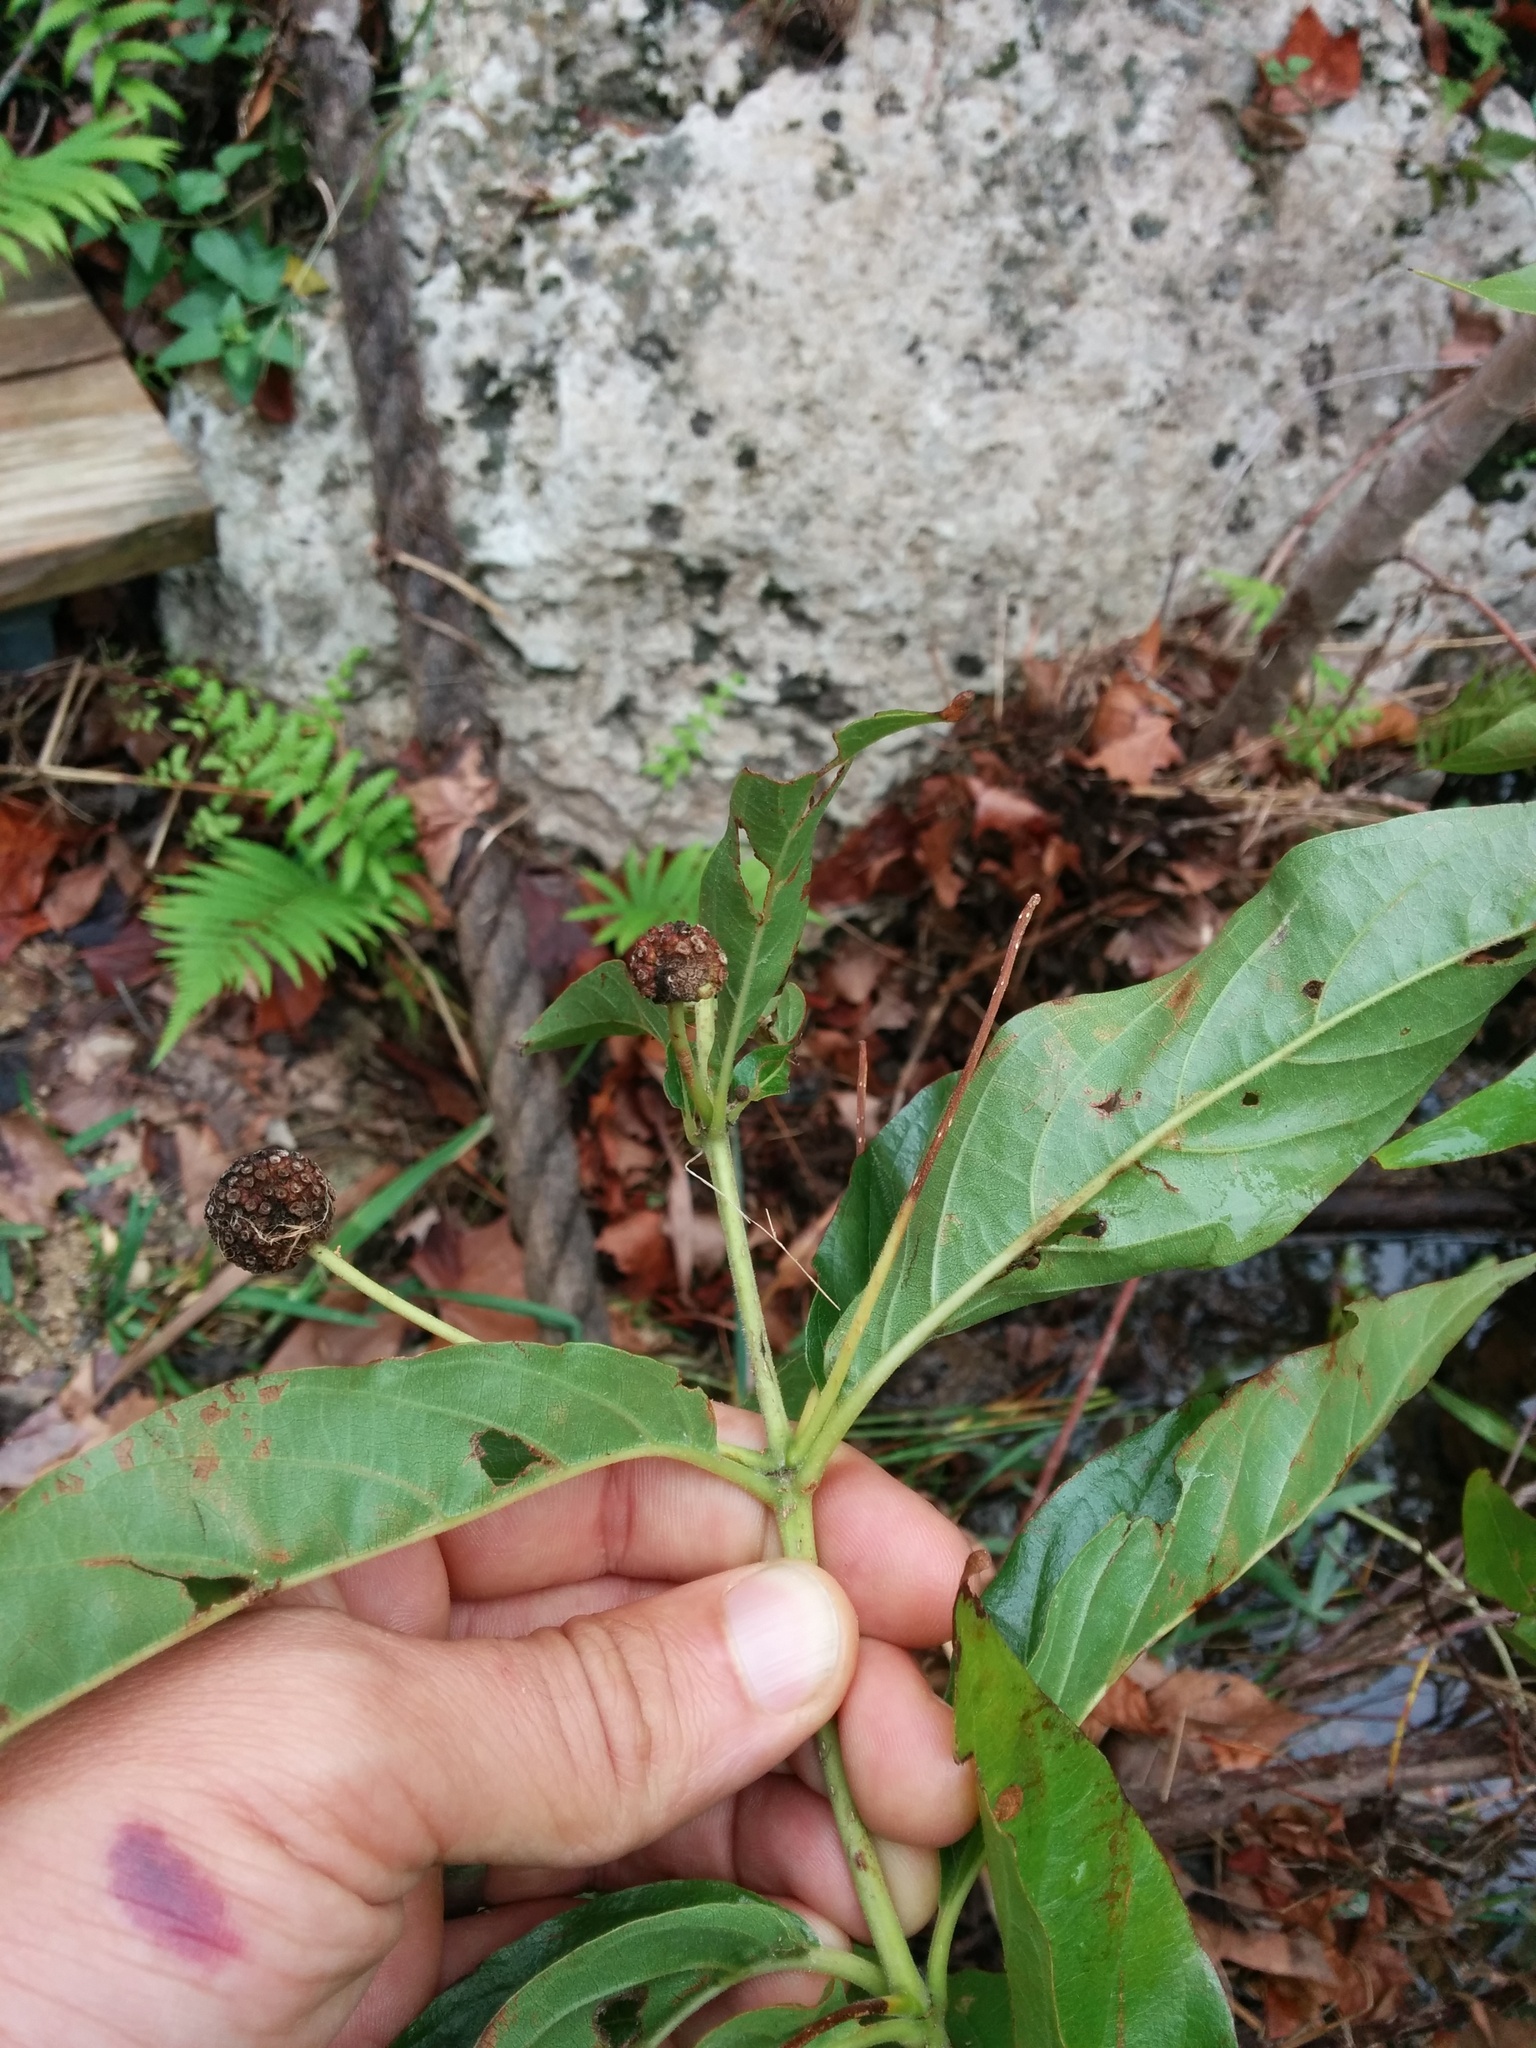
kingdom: Plantae
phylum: Tracheophyta
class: Magnoliopsida
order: Gentianales
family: Rubiaceae
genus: Cephalanthus
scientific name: Cephalanthus occidentalis
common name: Button-willow
